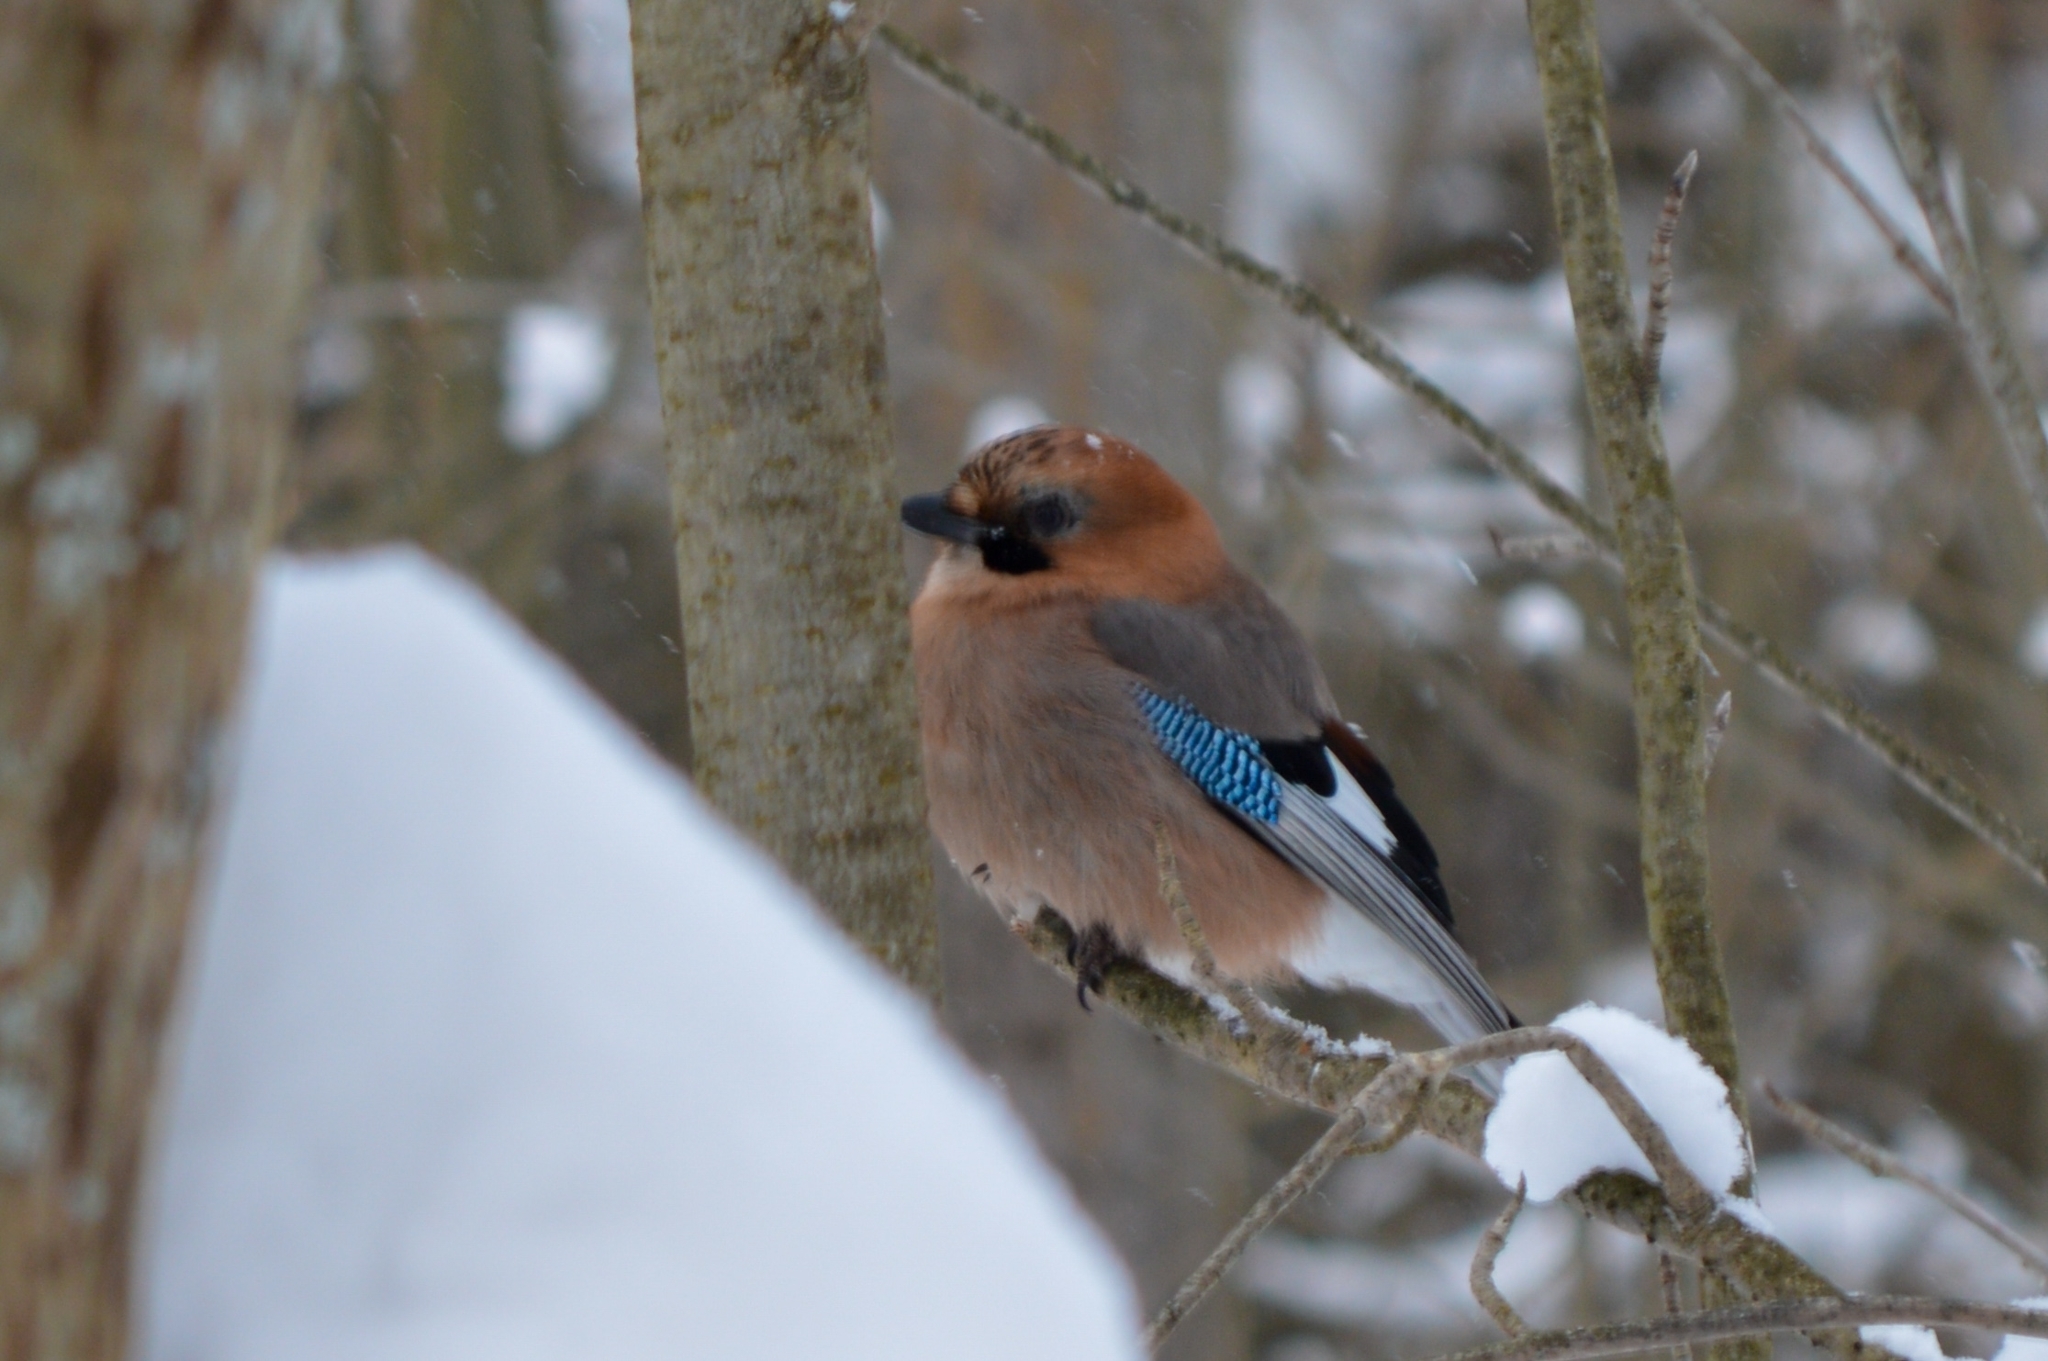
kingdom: Animalia
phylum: Chordata
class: Aves
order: Passeriformes
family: Corvidae
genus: Garrulus
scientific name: Garrulus glandarius
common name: Eurasian jay
